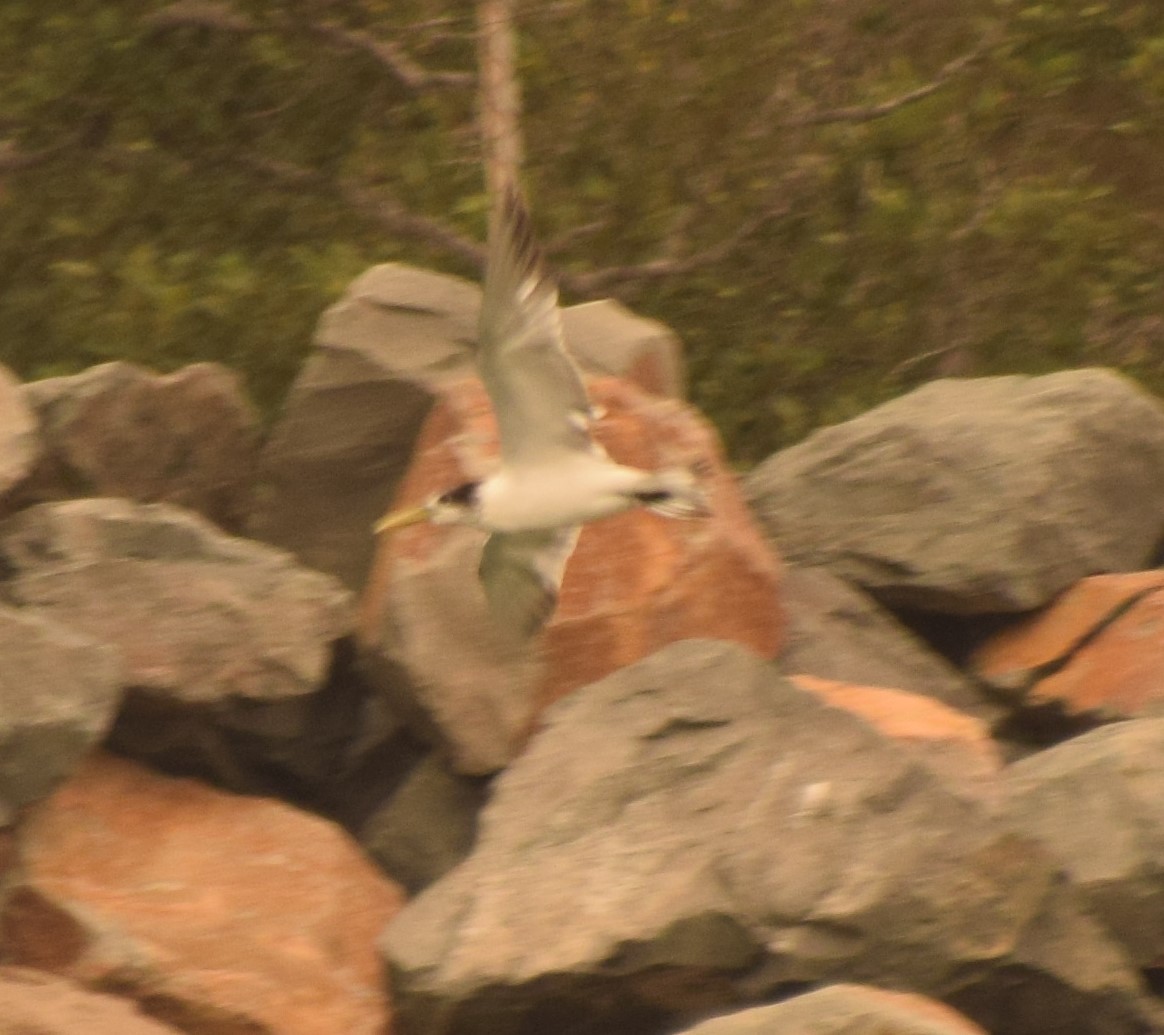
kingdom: Animalia
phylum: Chordata
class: Aves
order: Charadriiformes
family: Laridae
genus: Thalasseus
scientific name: Thalasseus bergii
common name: Greater crested tern
